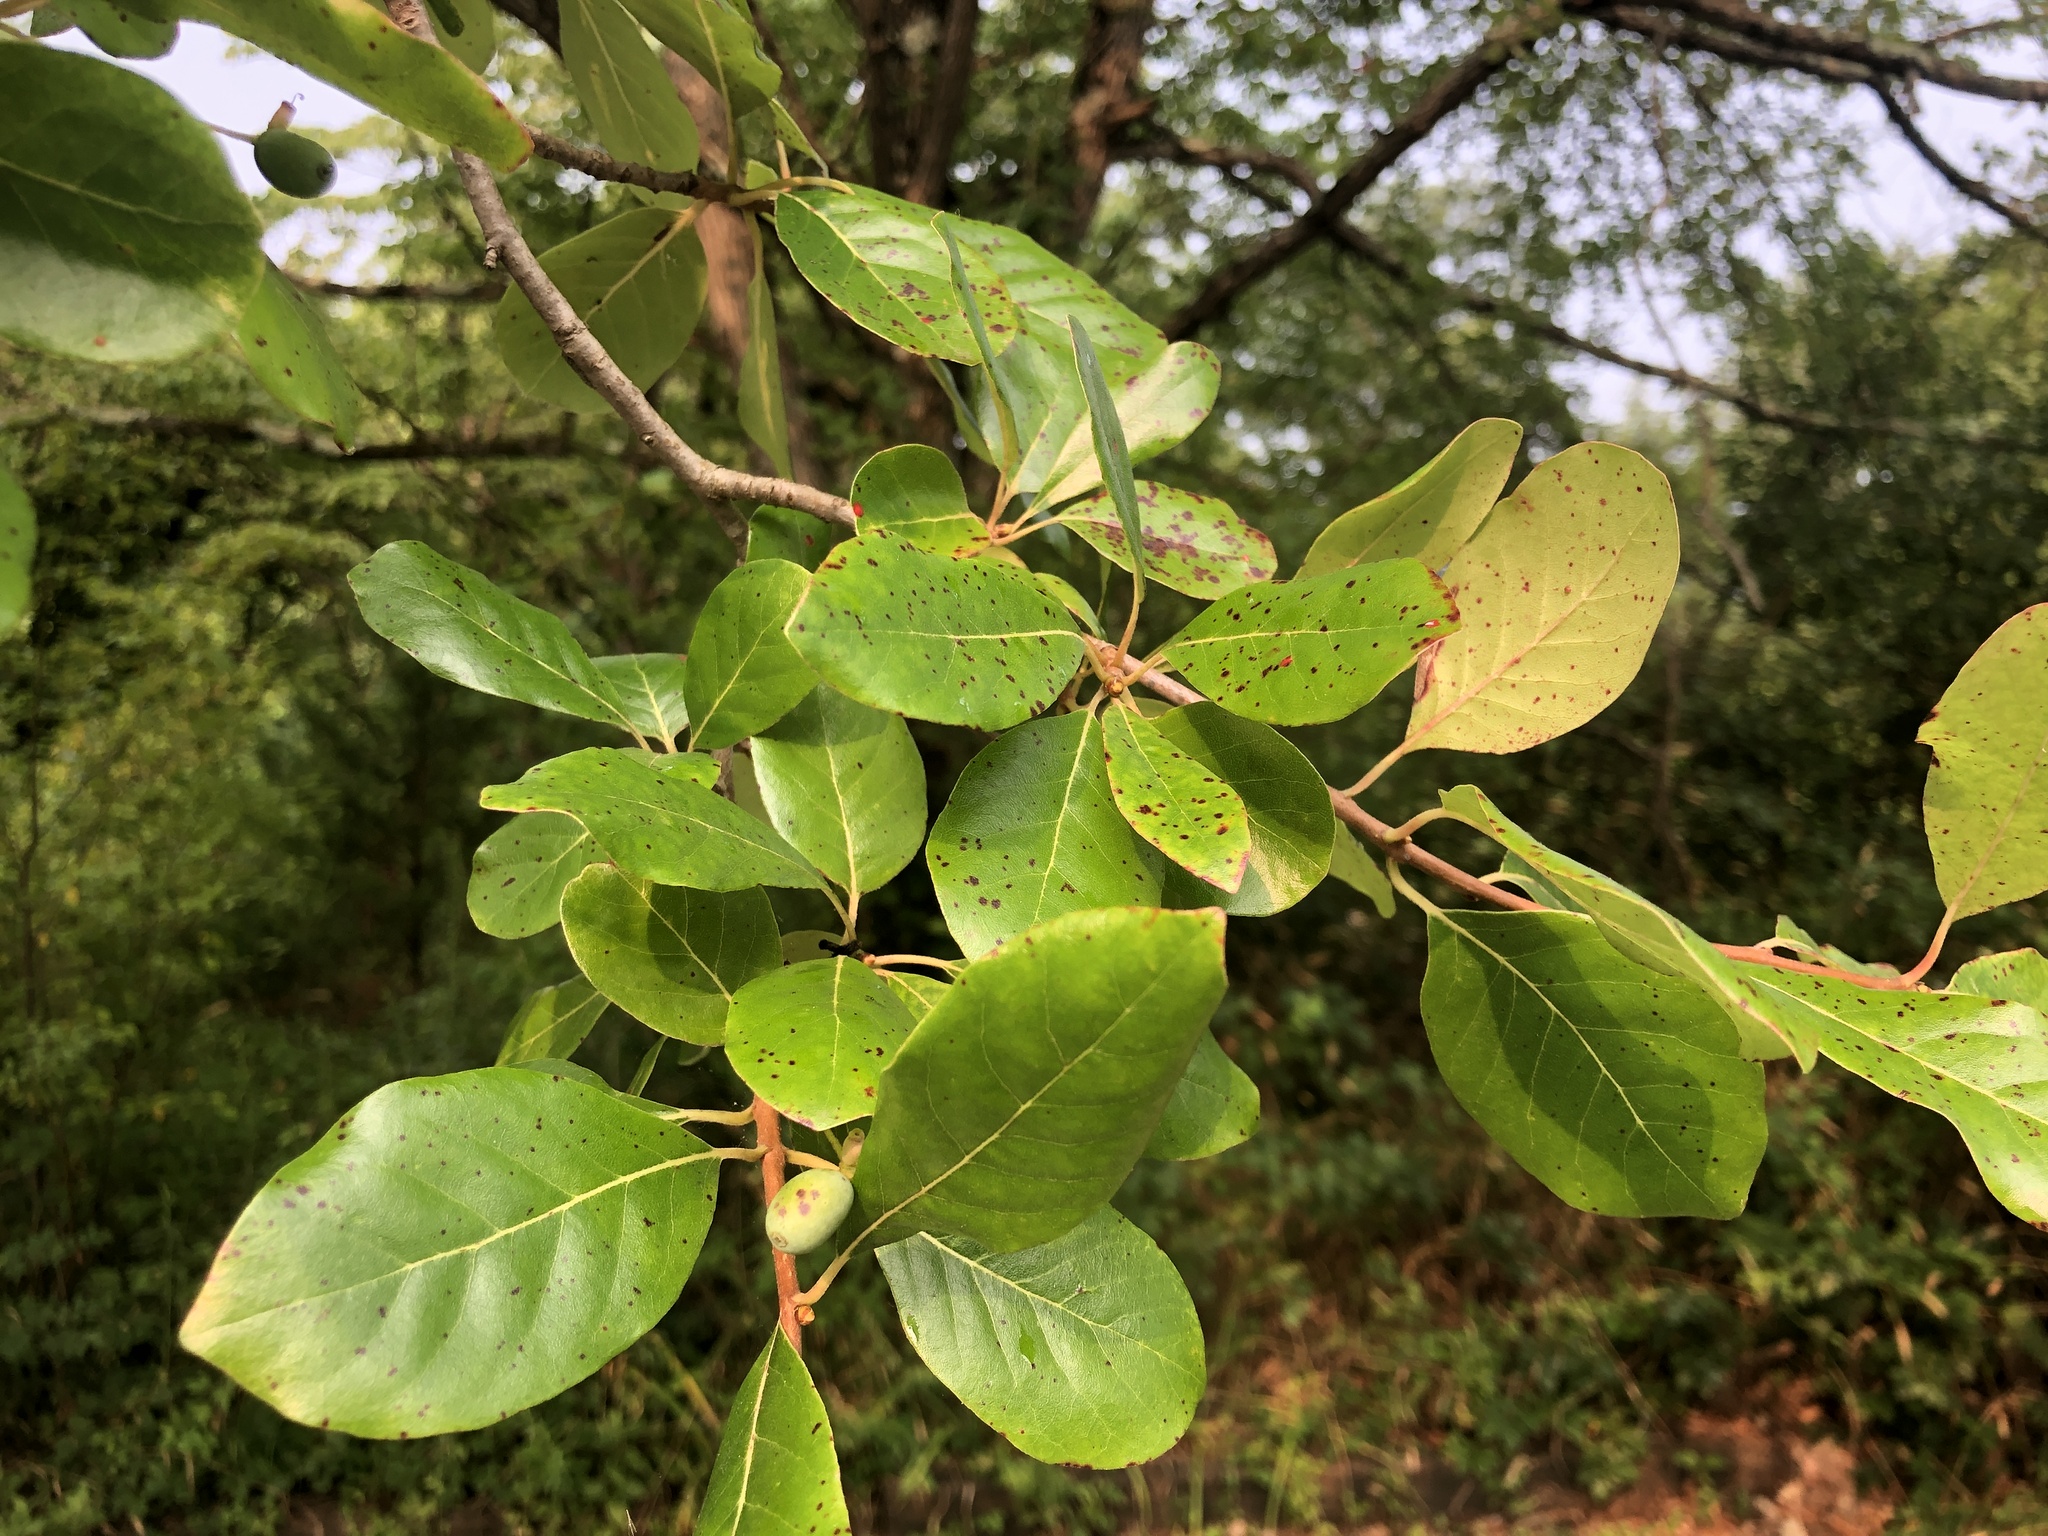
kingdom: Plantae
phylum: Tracheophyta
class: Magnoliopsida
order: Cornales
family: Nyssaceae
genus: Nyssa
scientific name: Nyssa sylvatica
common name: Black tupelo
